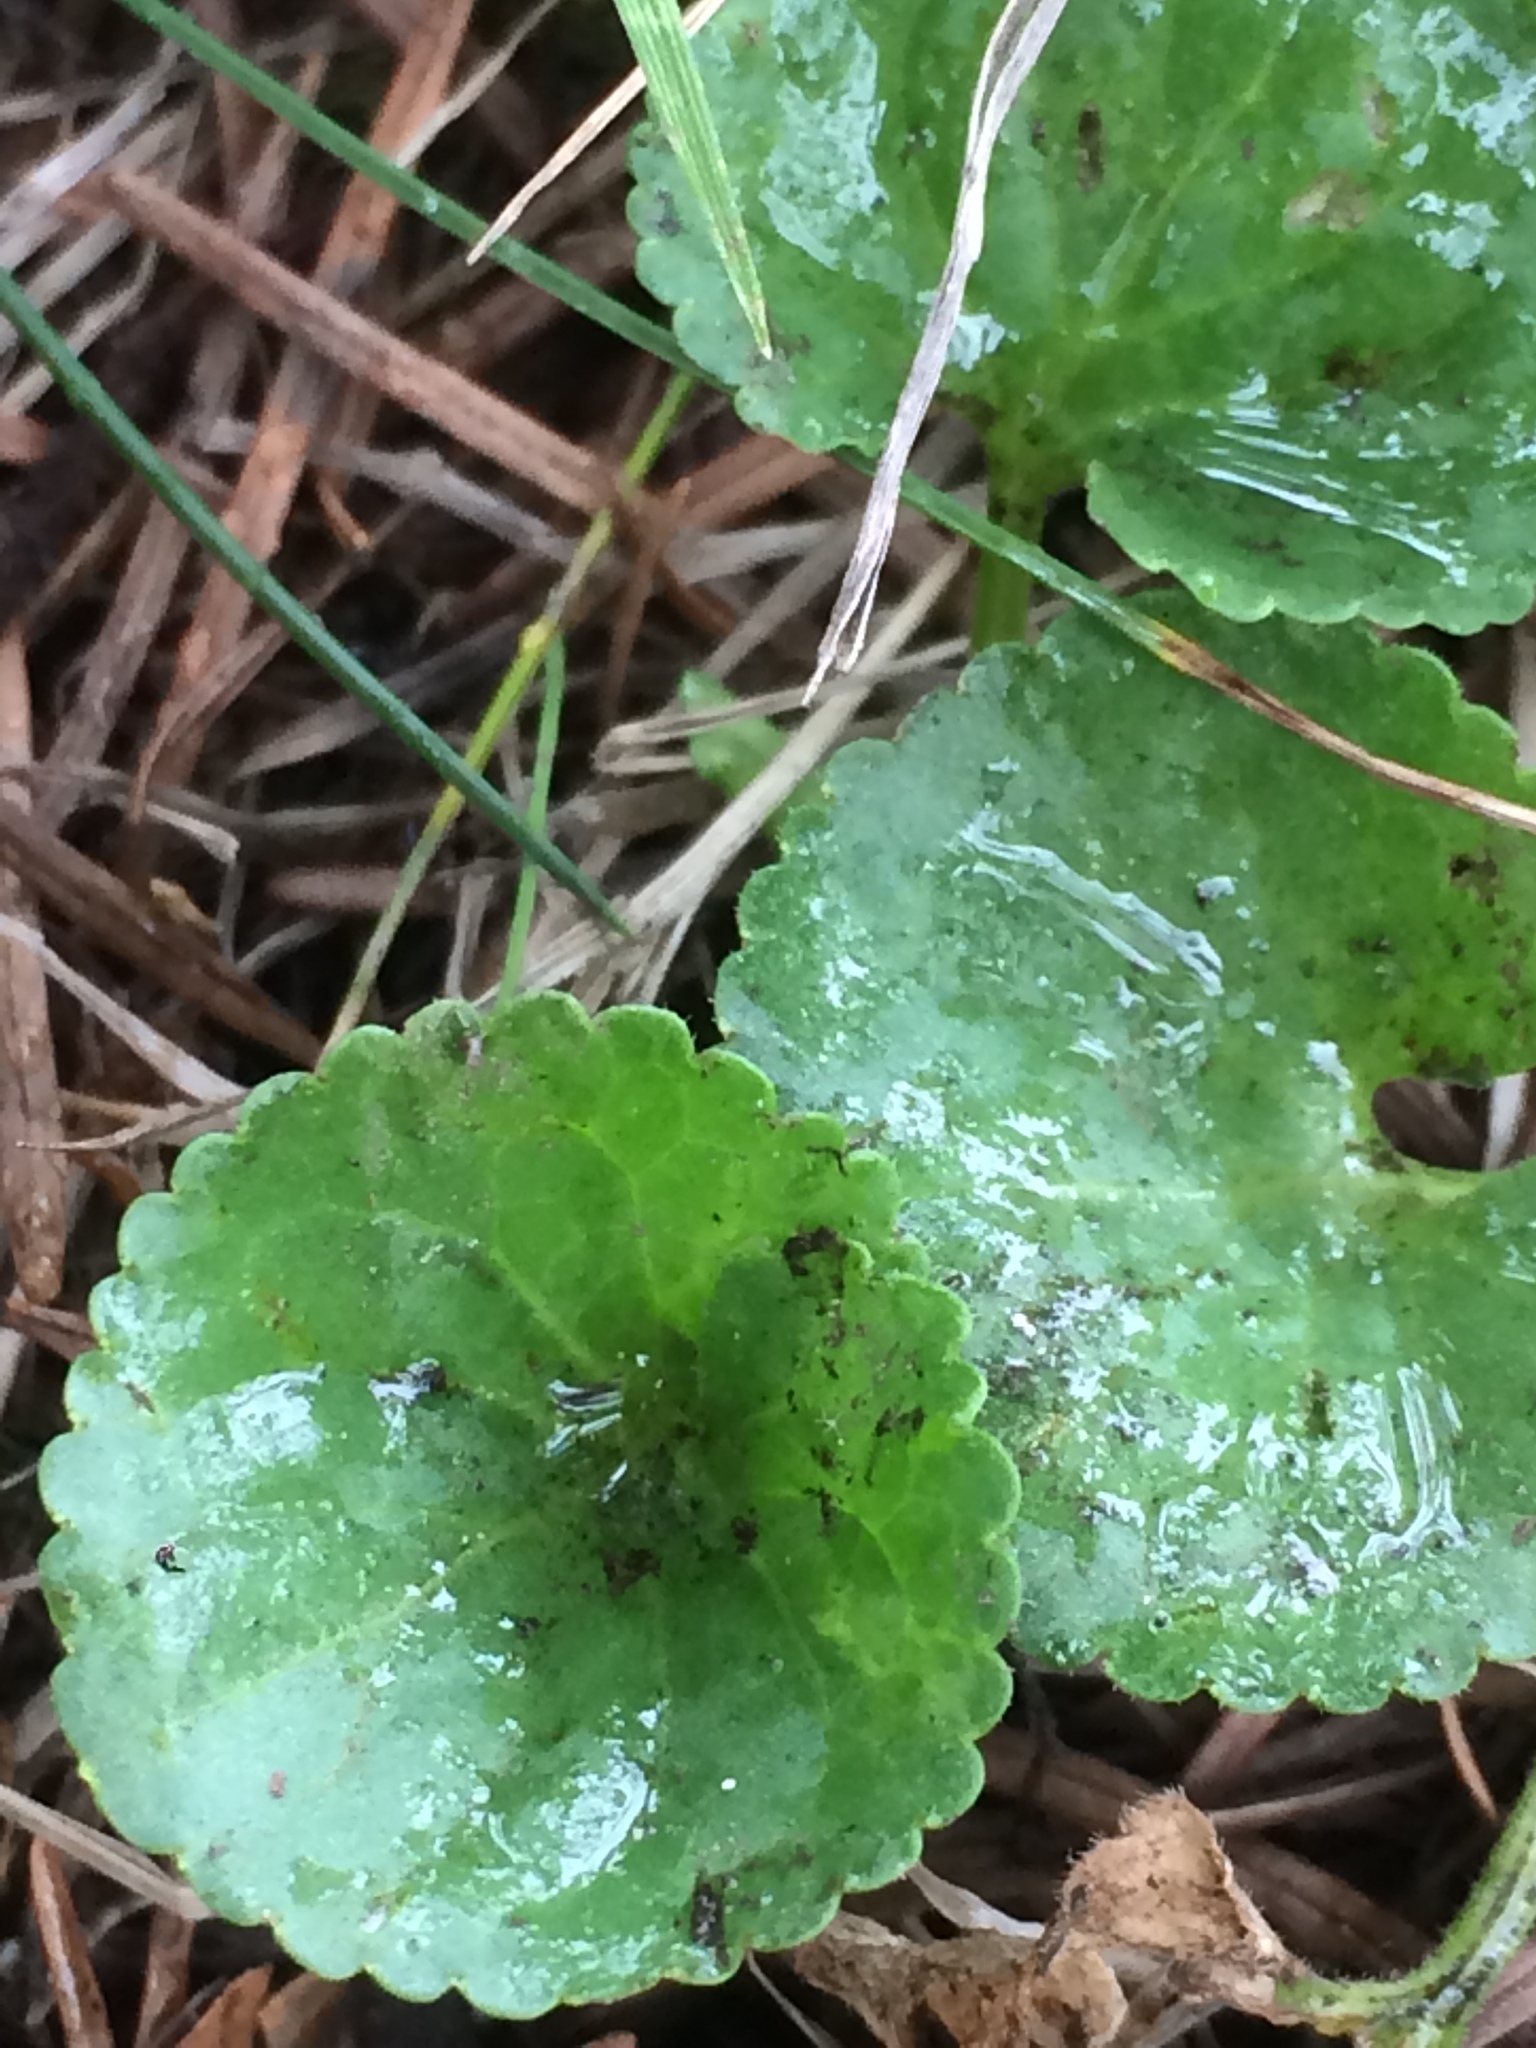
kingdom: Plantae
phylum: Tracheophyta
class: Magnoliopsida
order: Malpighiales
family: Violaceae
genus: Viola
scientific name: Viola odorata
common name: Sweet violet
